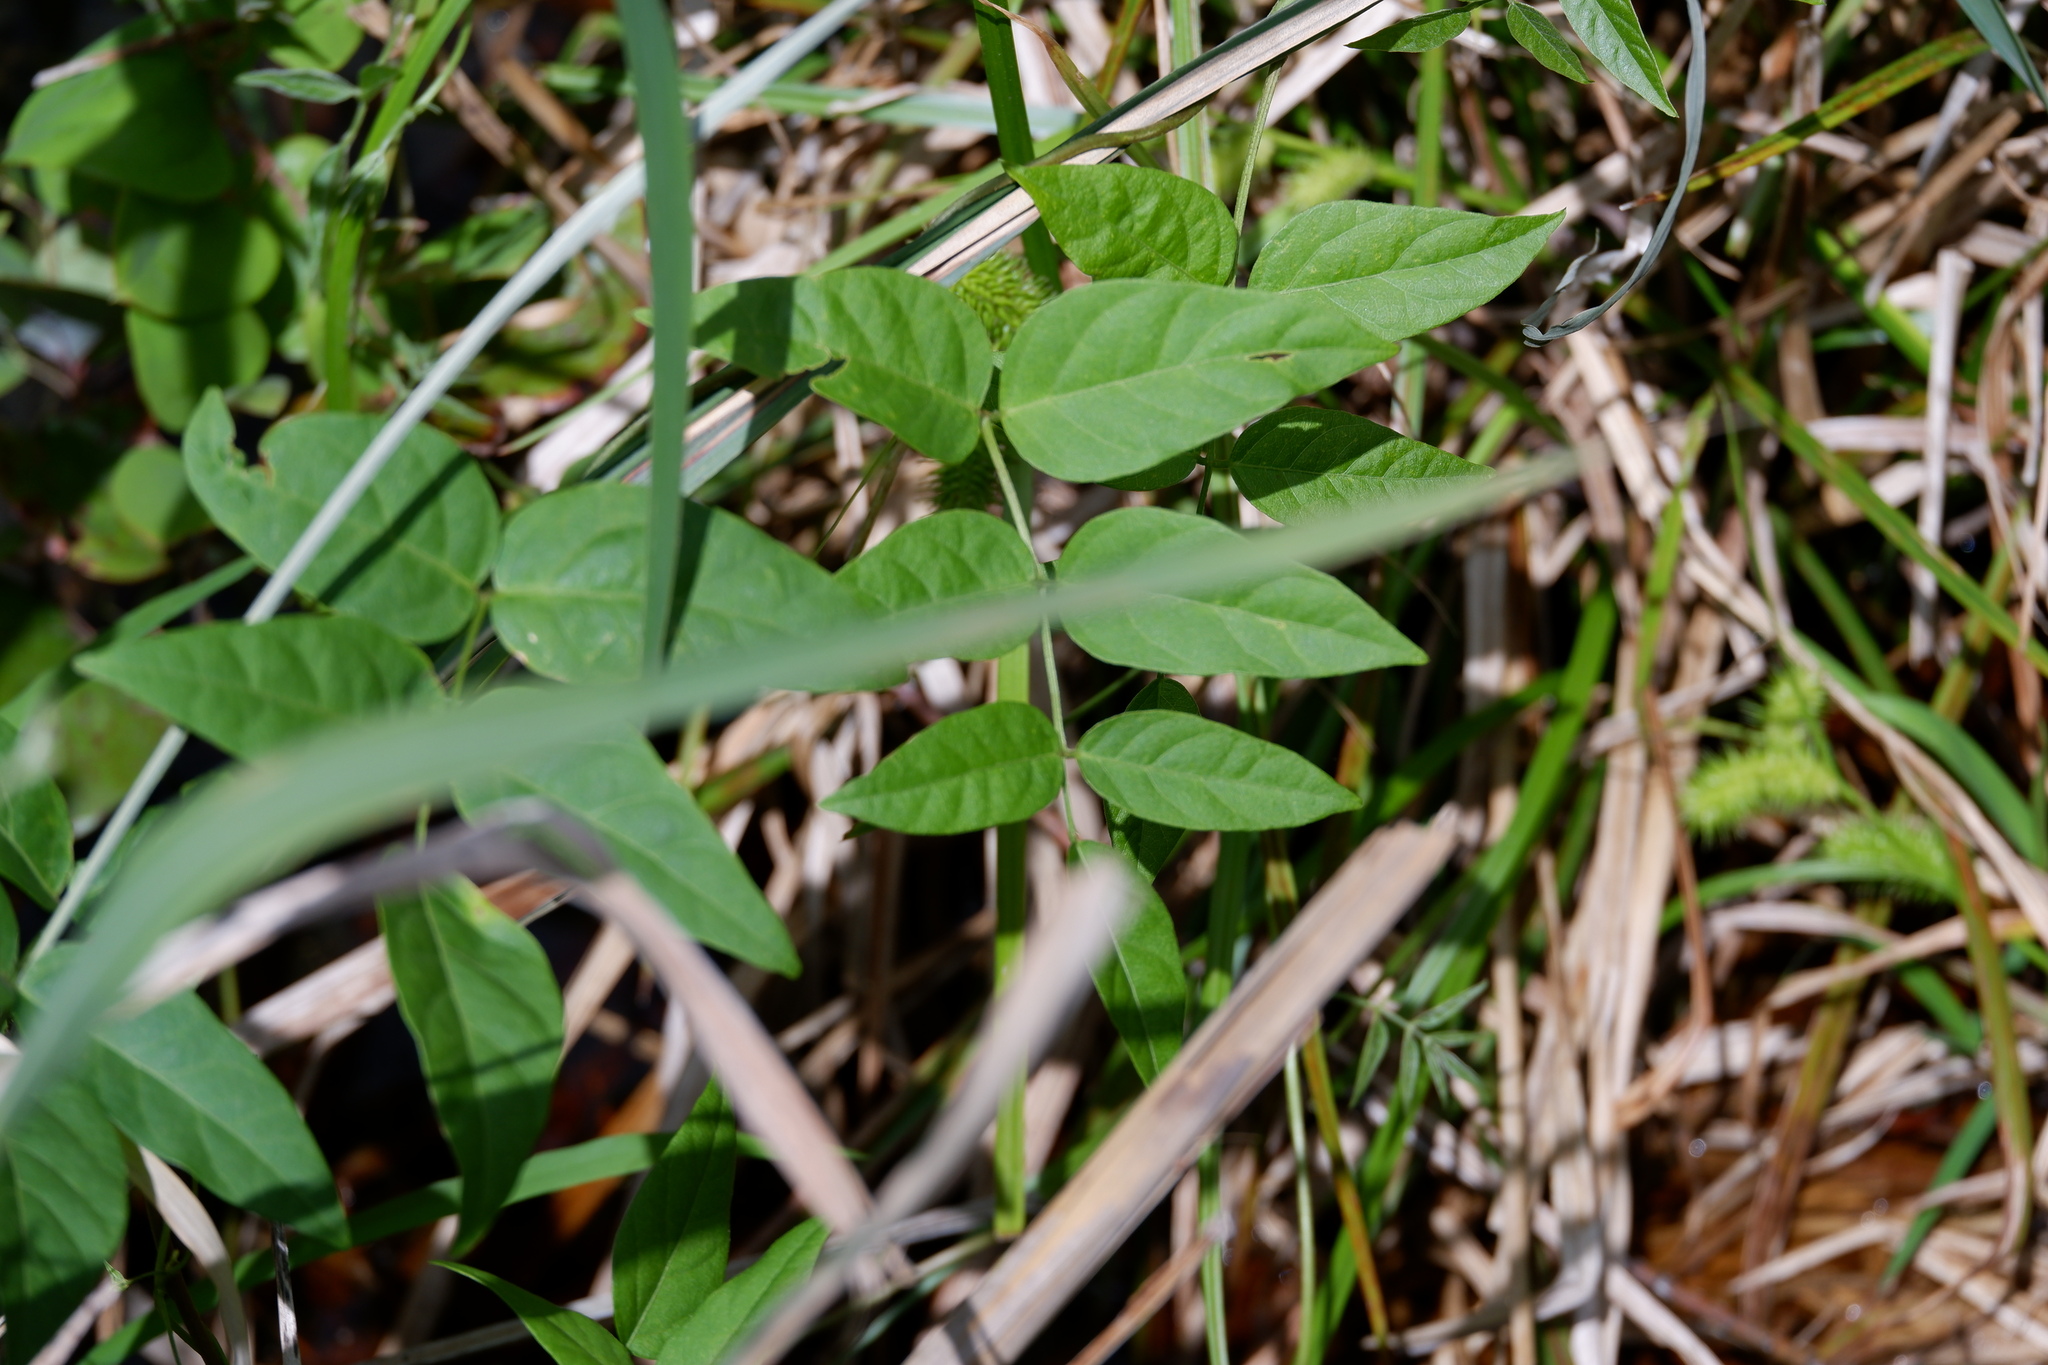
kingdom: Plantae
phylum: Tracheophyta
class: Magnoliopsida
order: Fabales
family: Fabaceae
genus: Apios
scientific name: Apios americana
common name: American potato-bean
